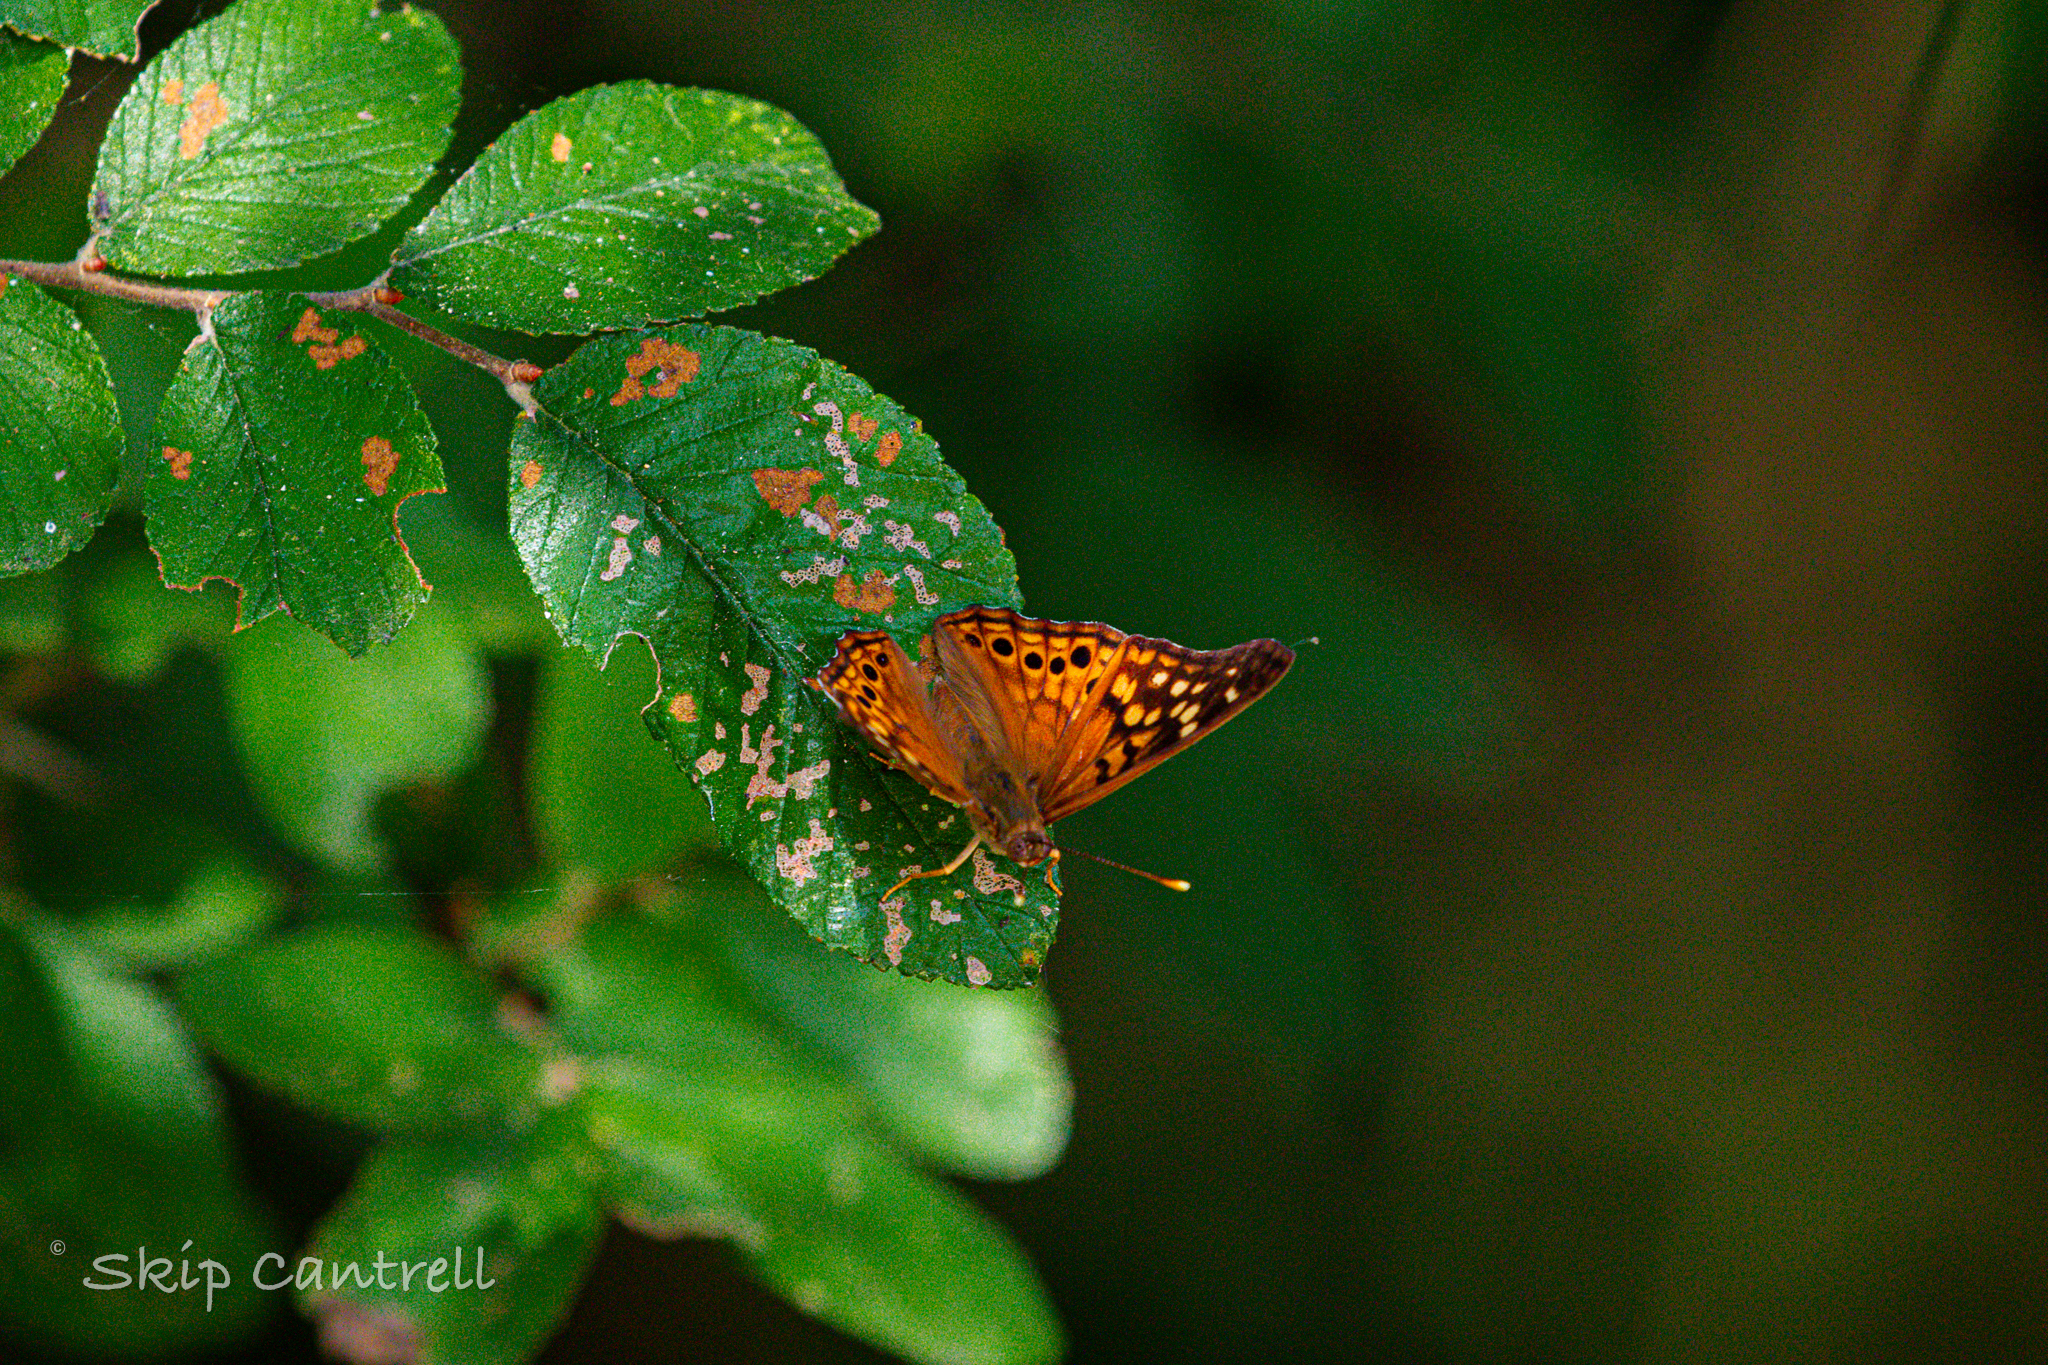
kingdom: Animalia
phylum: Arthropoda
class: Insecta
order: Lepidoptera
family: Nymphalidae
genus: Asterocampa
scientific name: Asterocampa clyton
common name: Tawny emperor
